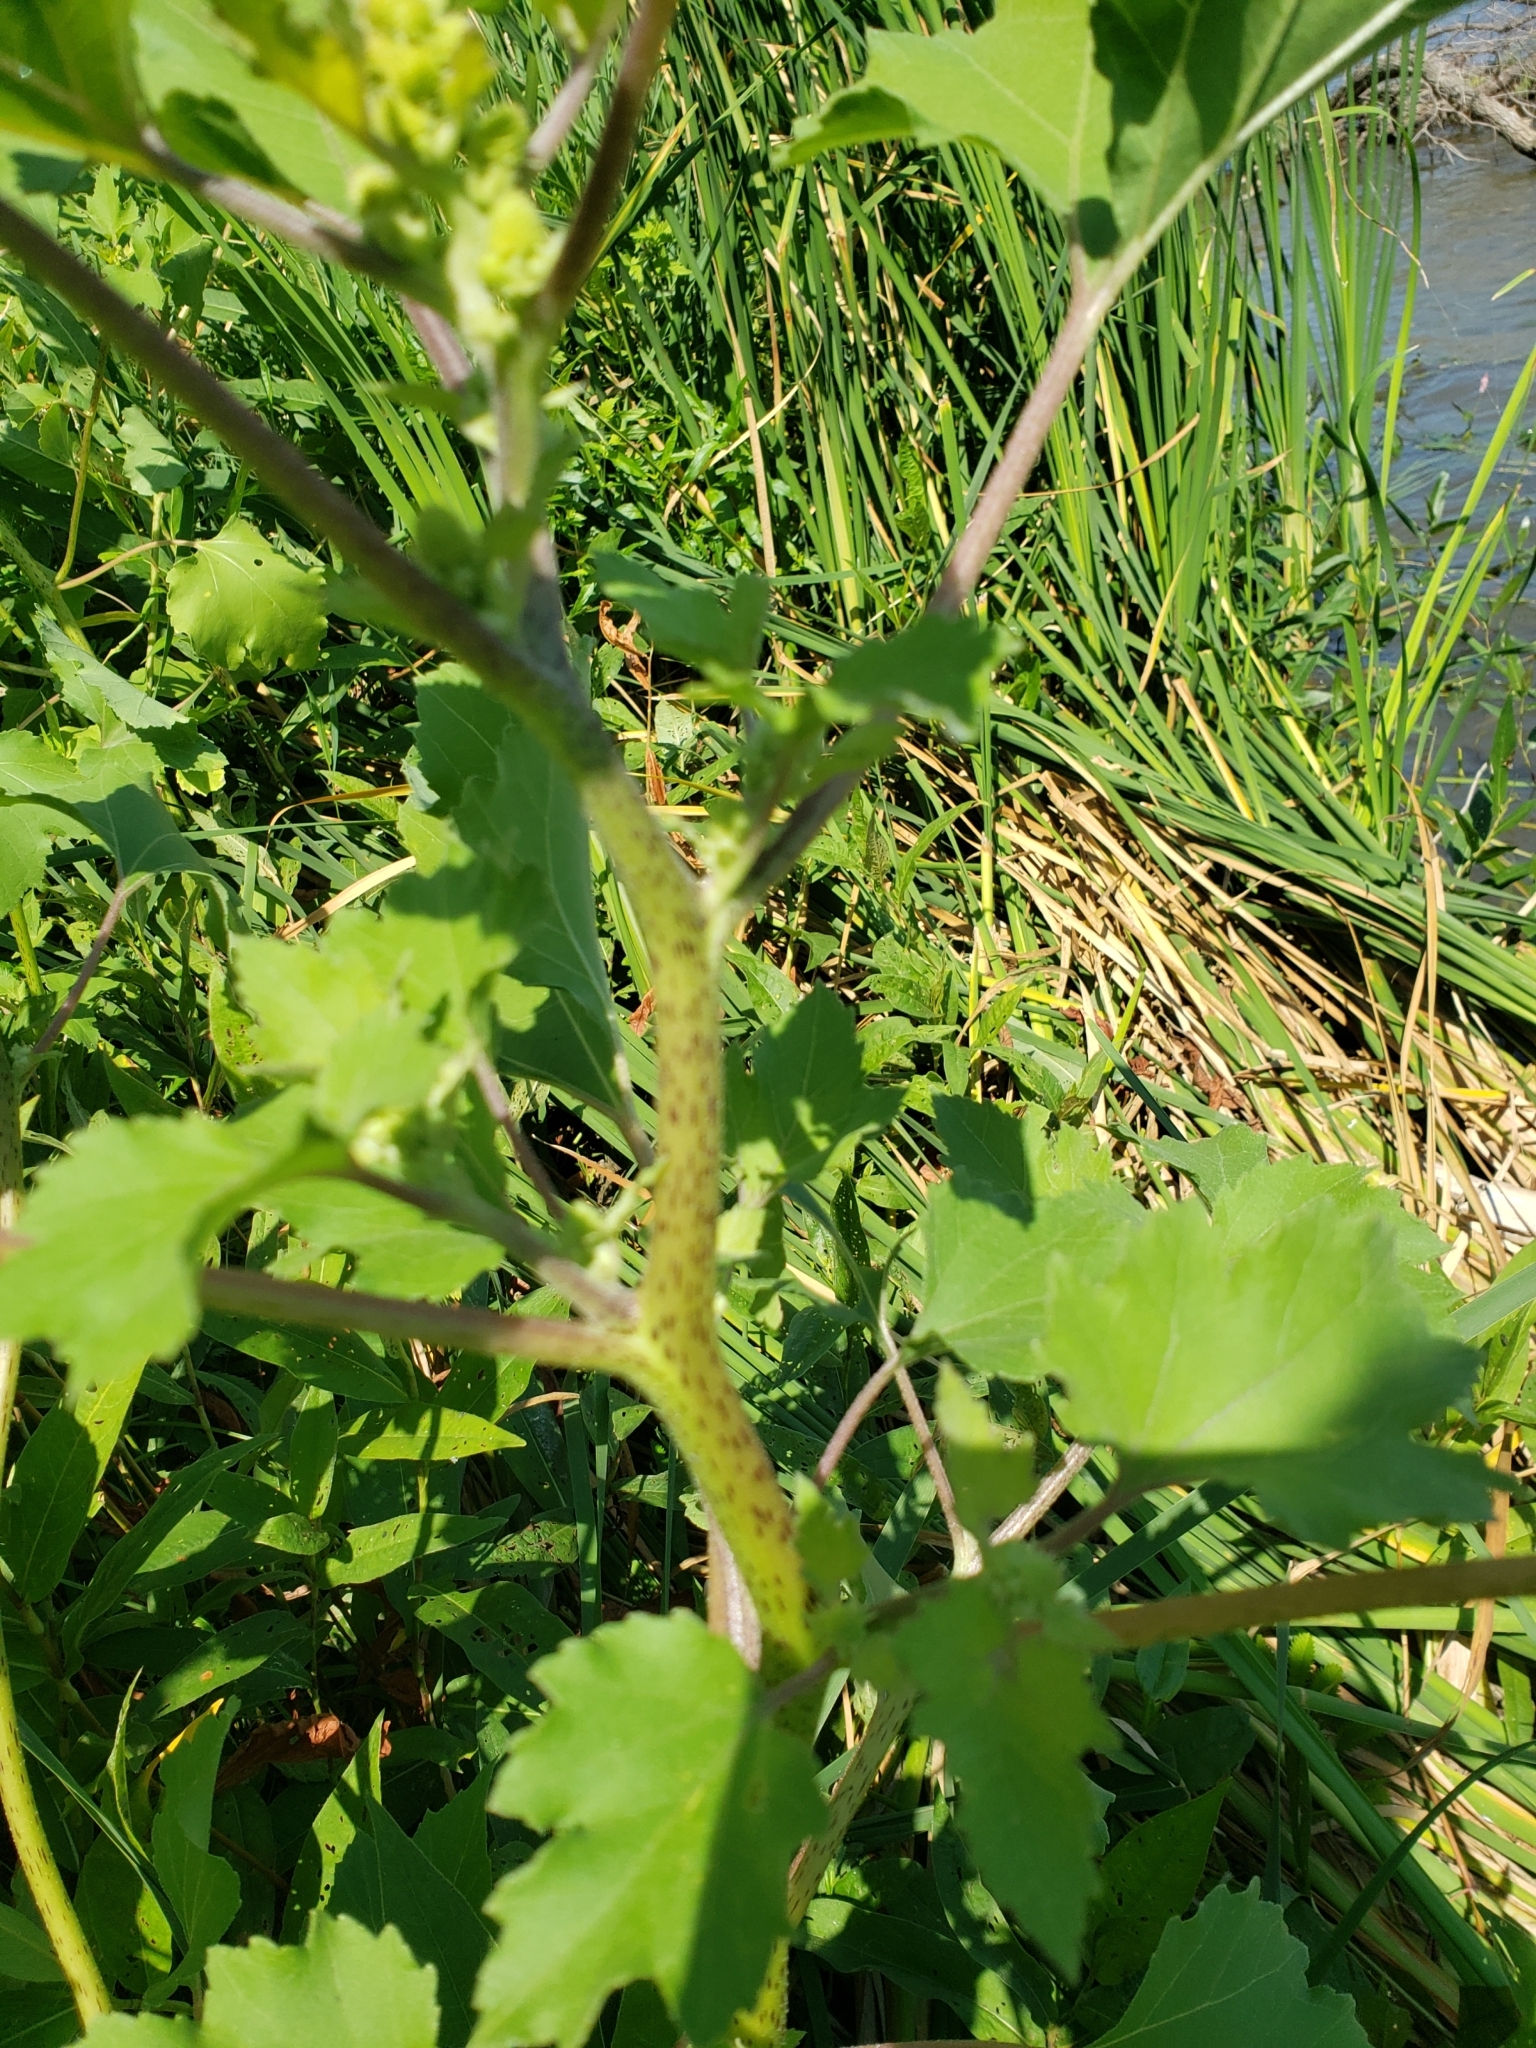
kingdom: Plantae
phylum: Tracheophyta
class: Magnoliopsida
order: Asterales
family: Asteraceae
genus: Xanthium
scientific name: Xanthium strumarium
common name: Rough cocklebur
